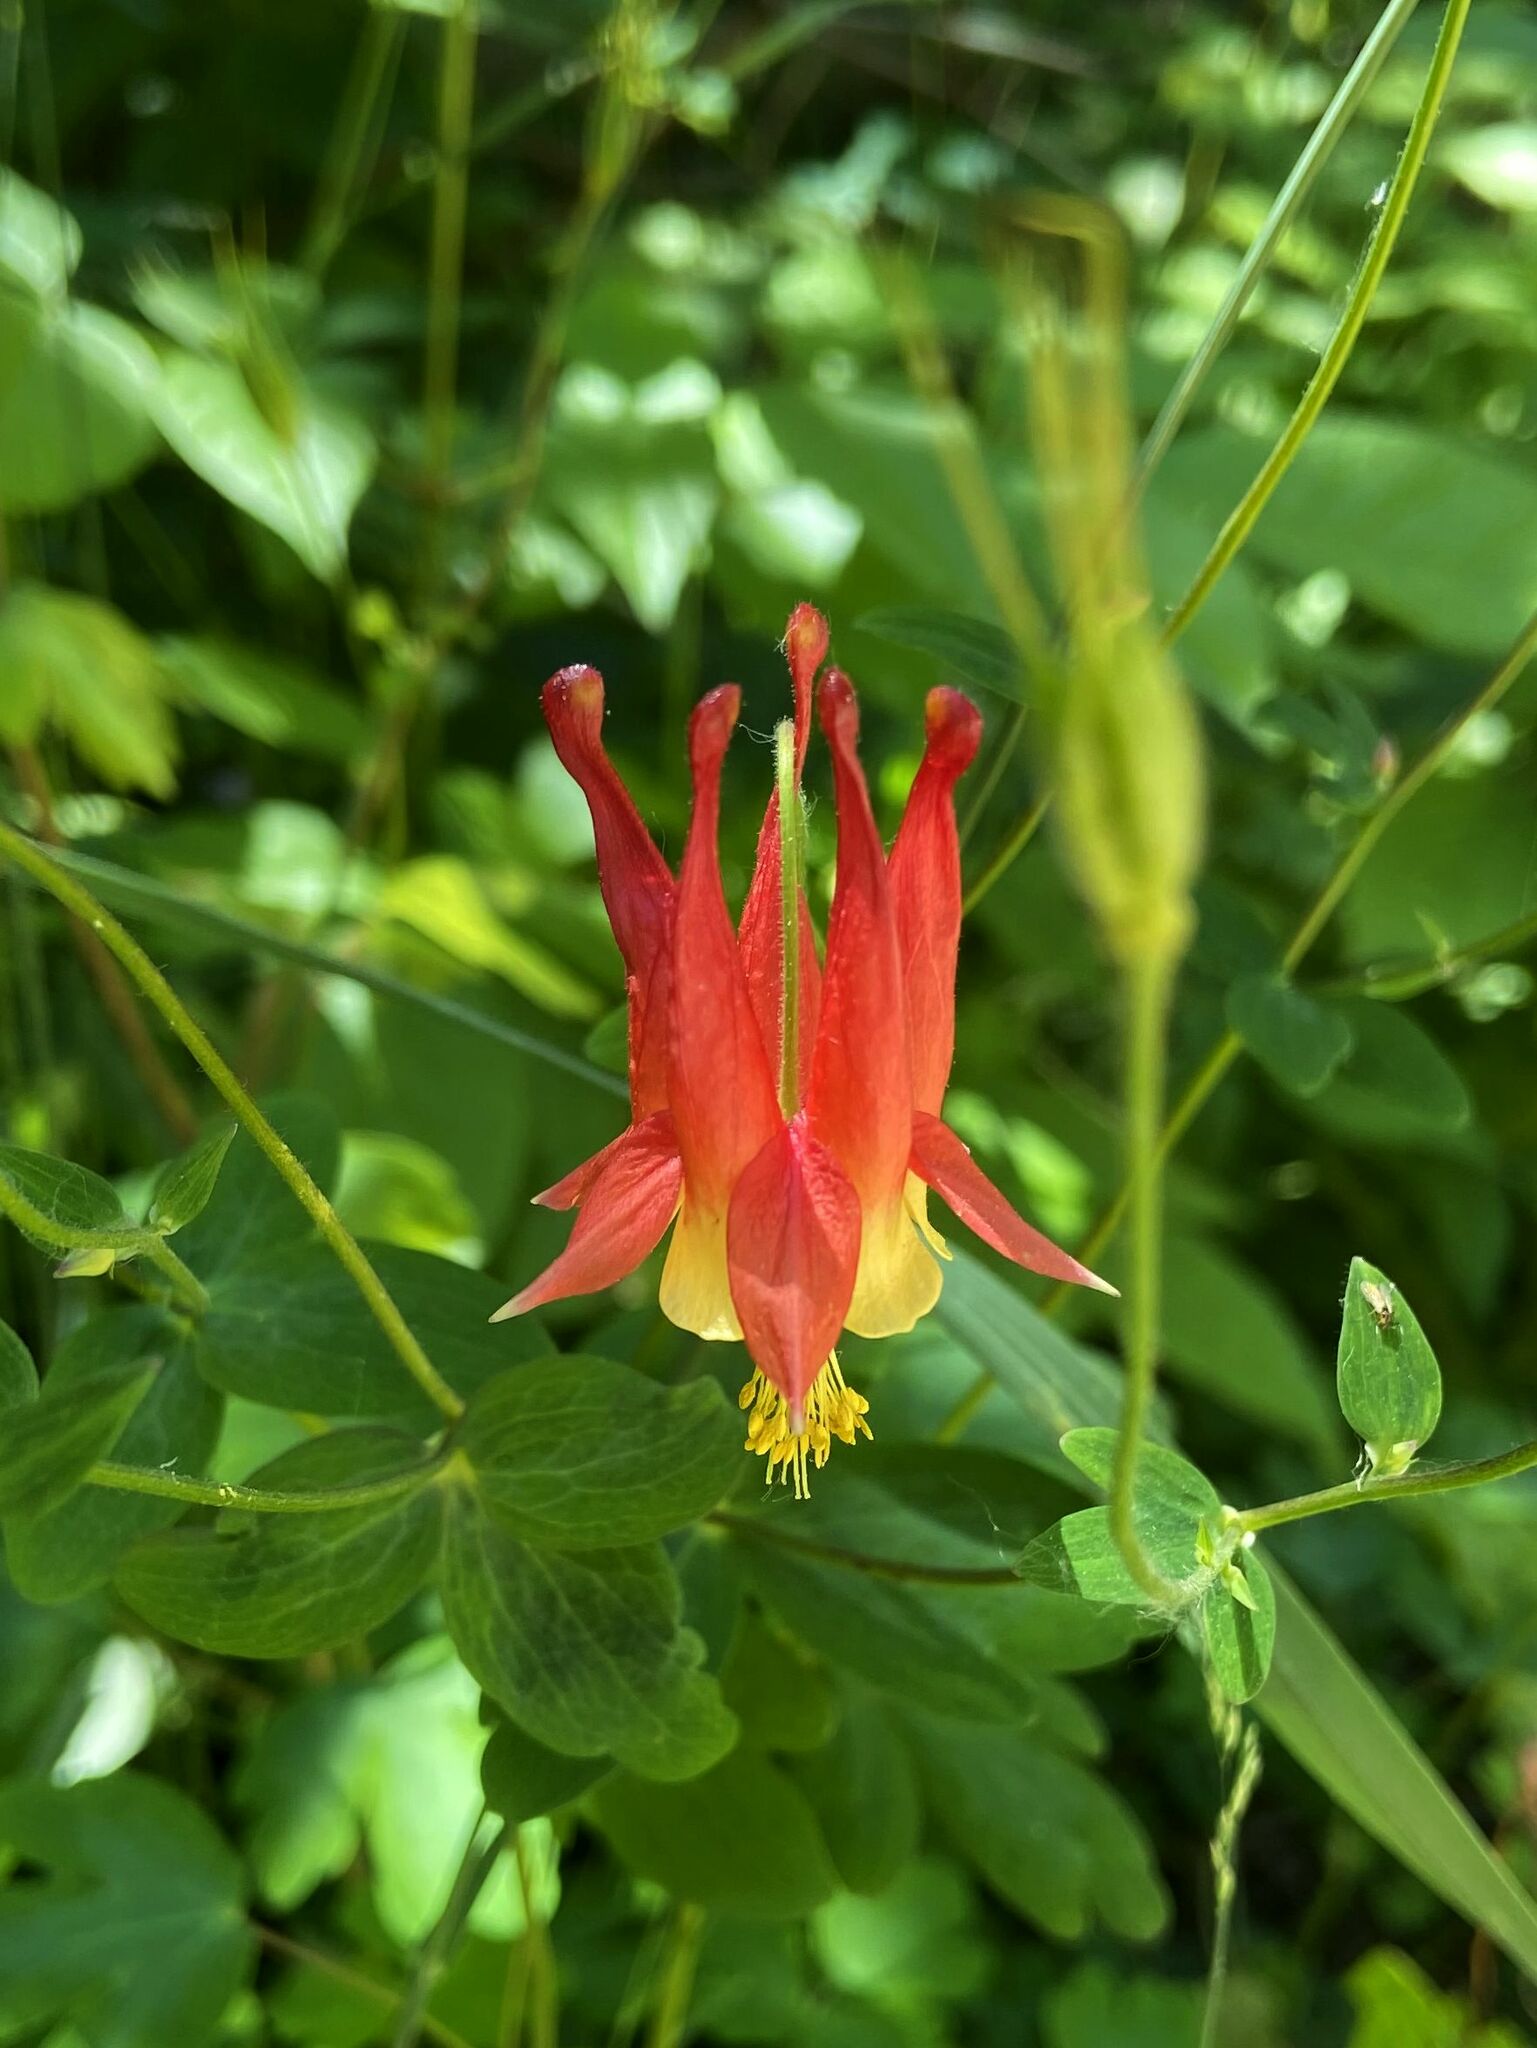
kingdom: Plantae
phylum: Tracheophyta
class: Magnoliopsida
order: Ranunculales
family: Ranunculaceae
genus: Aquilegia
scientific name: Aquilegia canadensis
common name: American columbine
